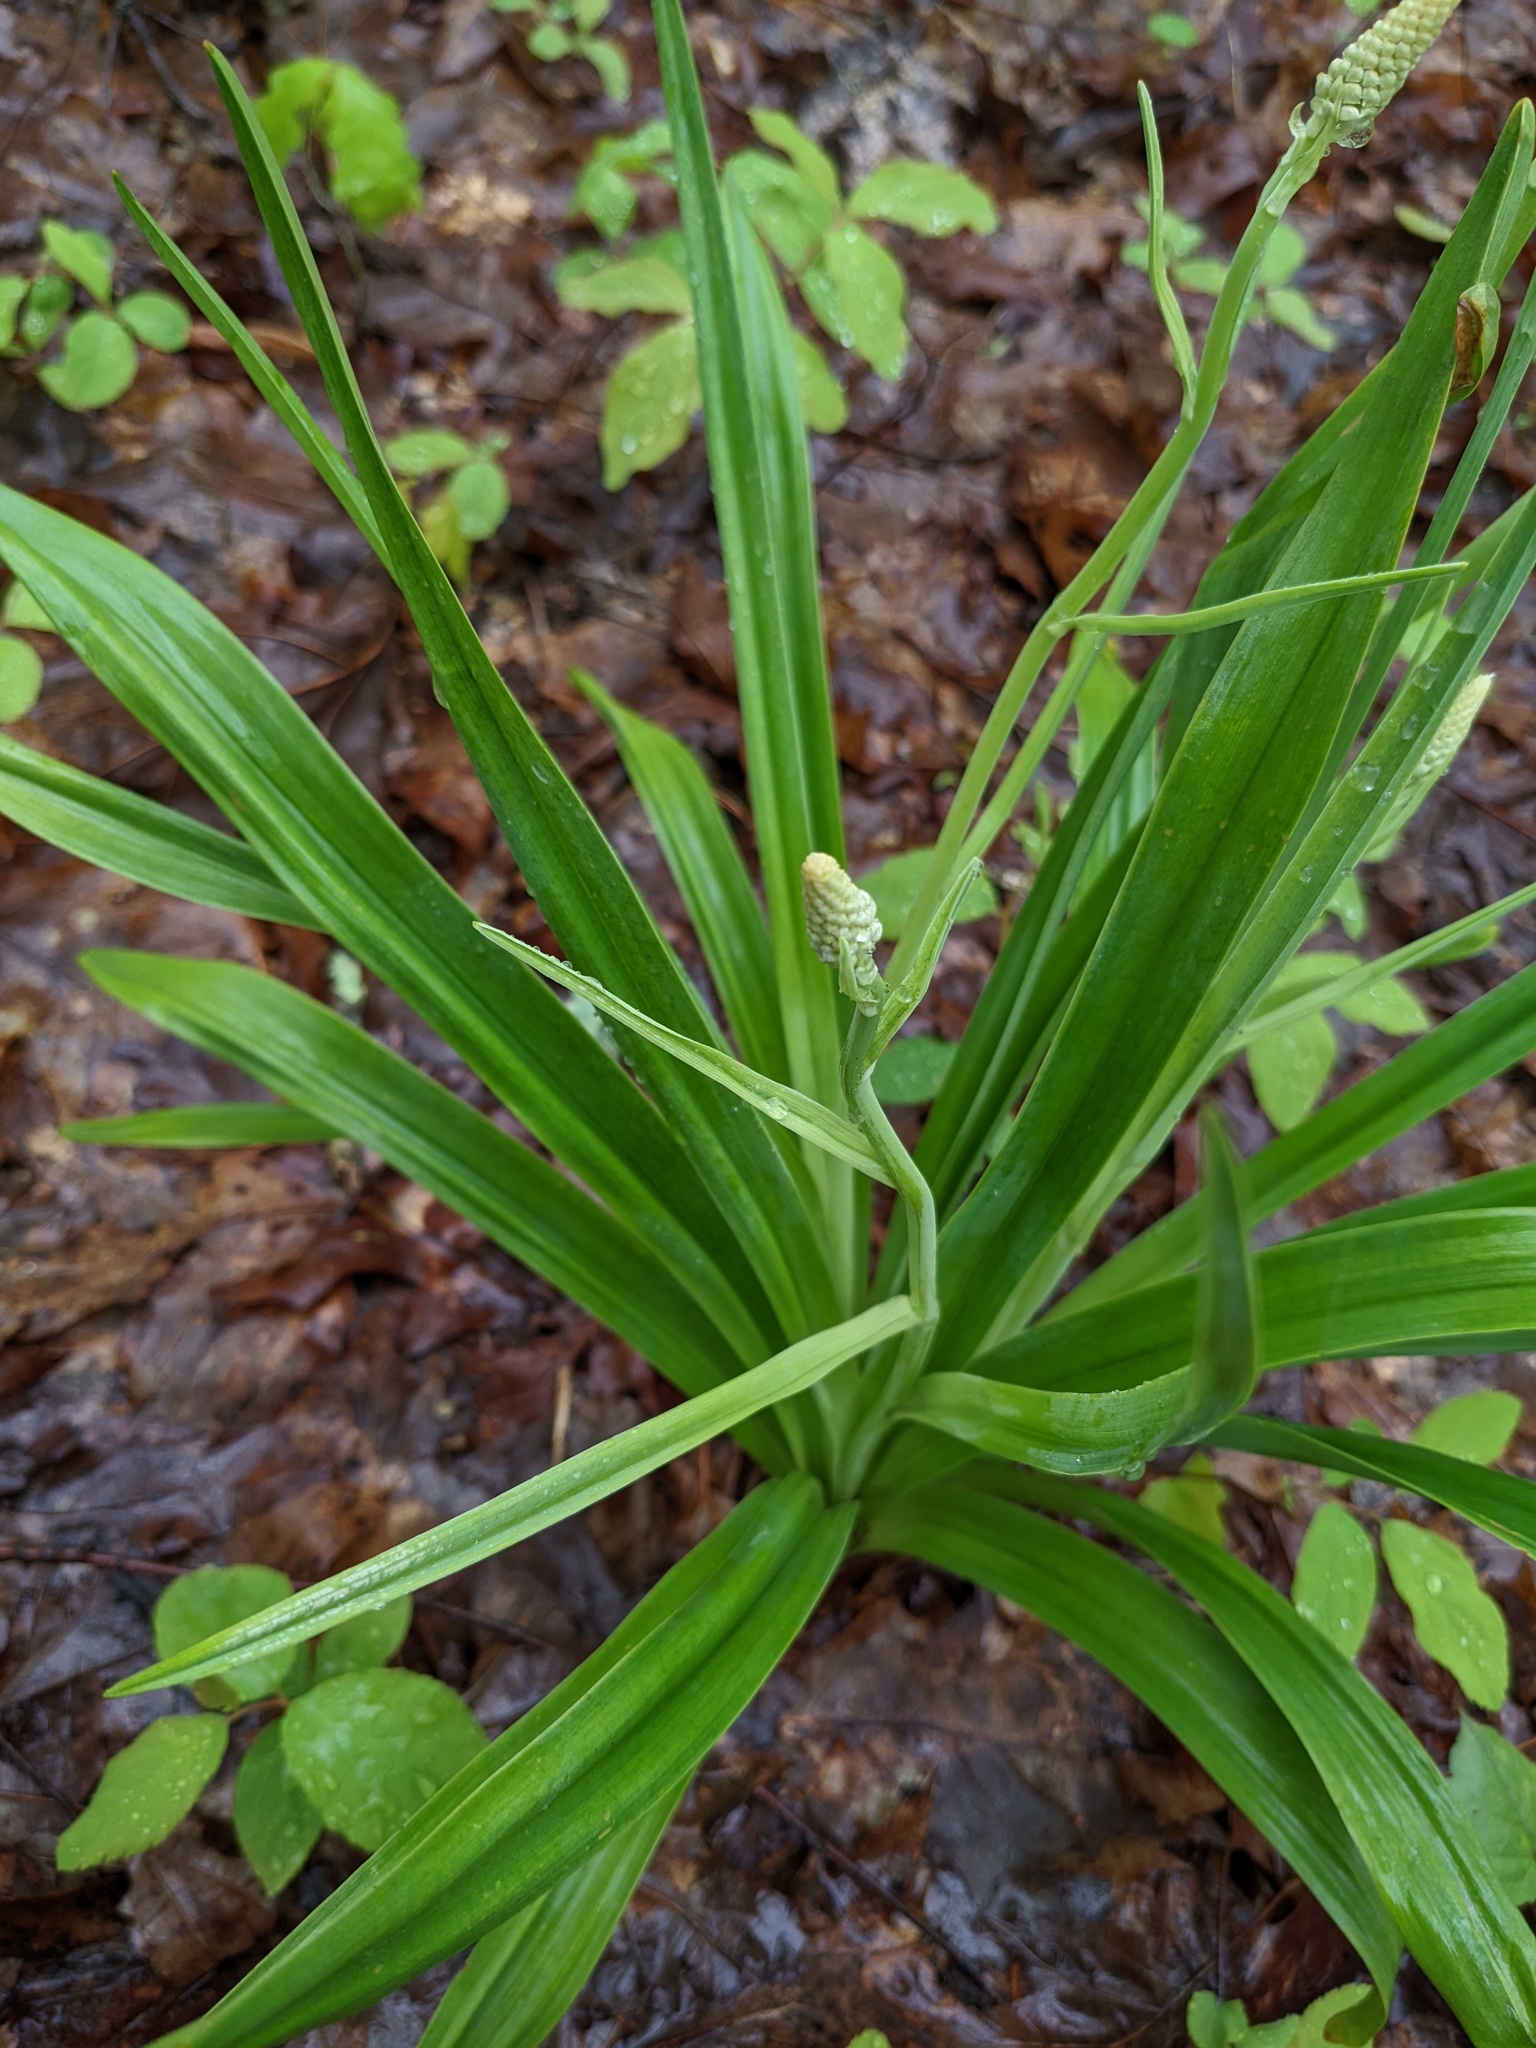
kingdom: Plantae
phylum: Tracheophyta
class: Liliopsida
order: Liliales
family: Melanthiaceae
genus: Amianthium
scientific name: Amianthium muscitoxicum
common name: Fly-poison
